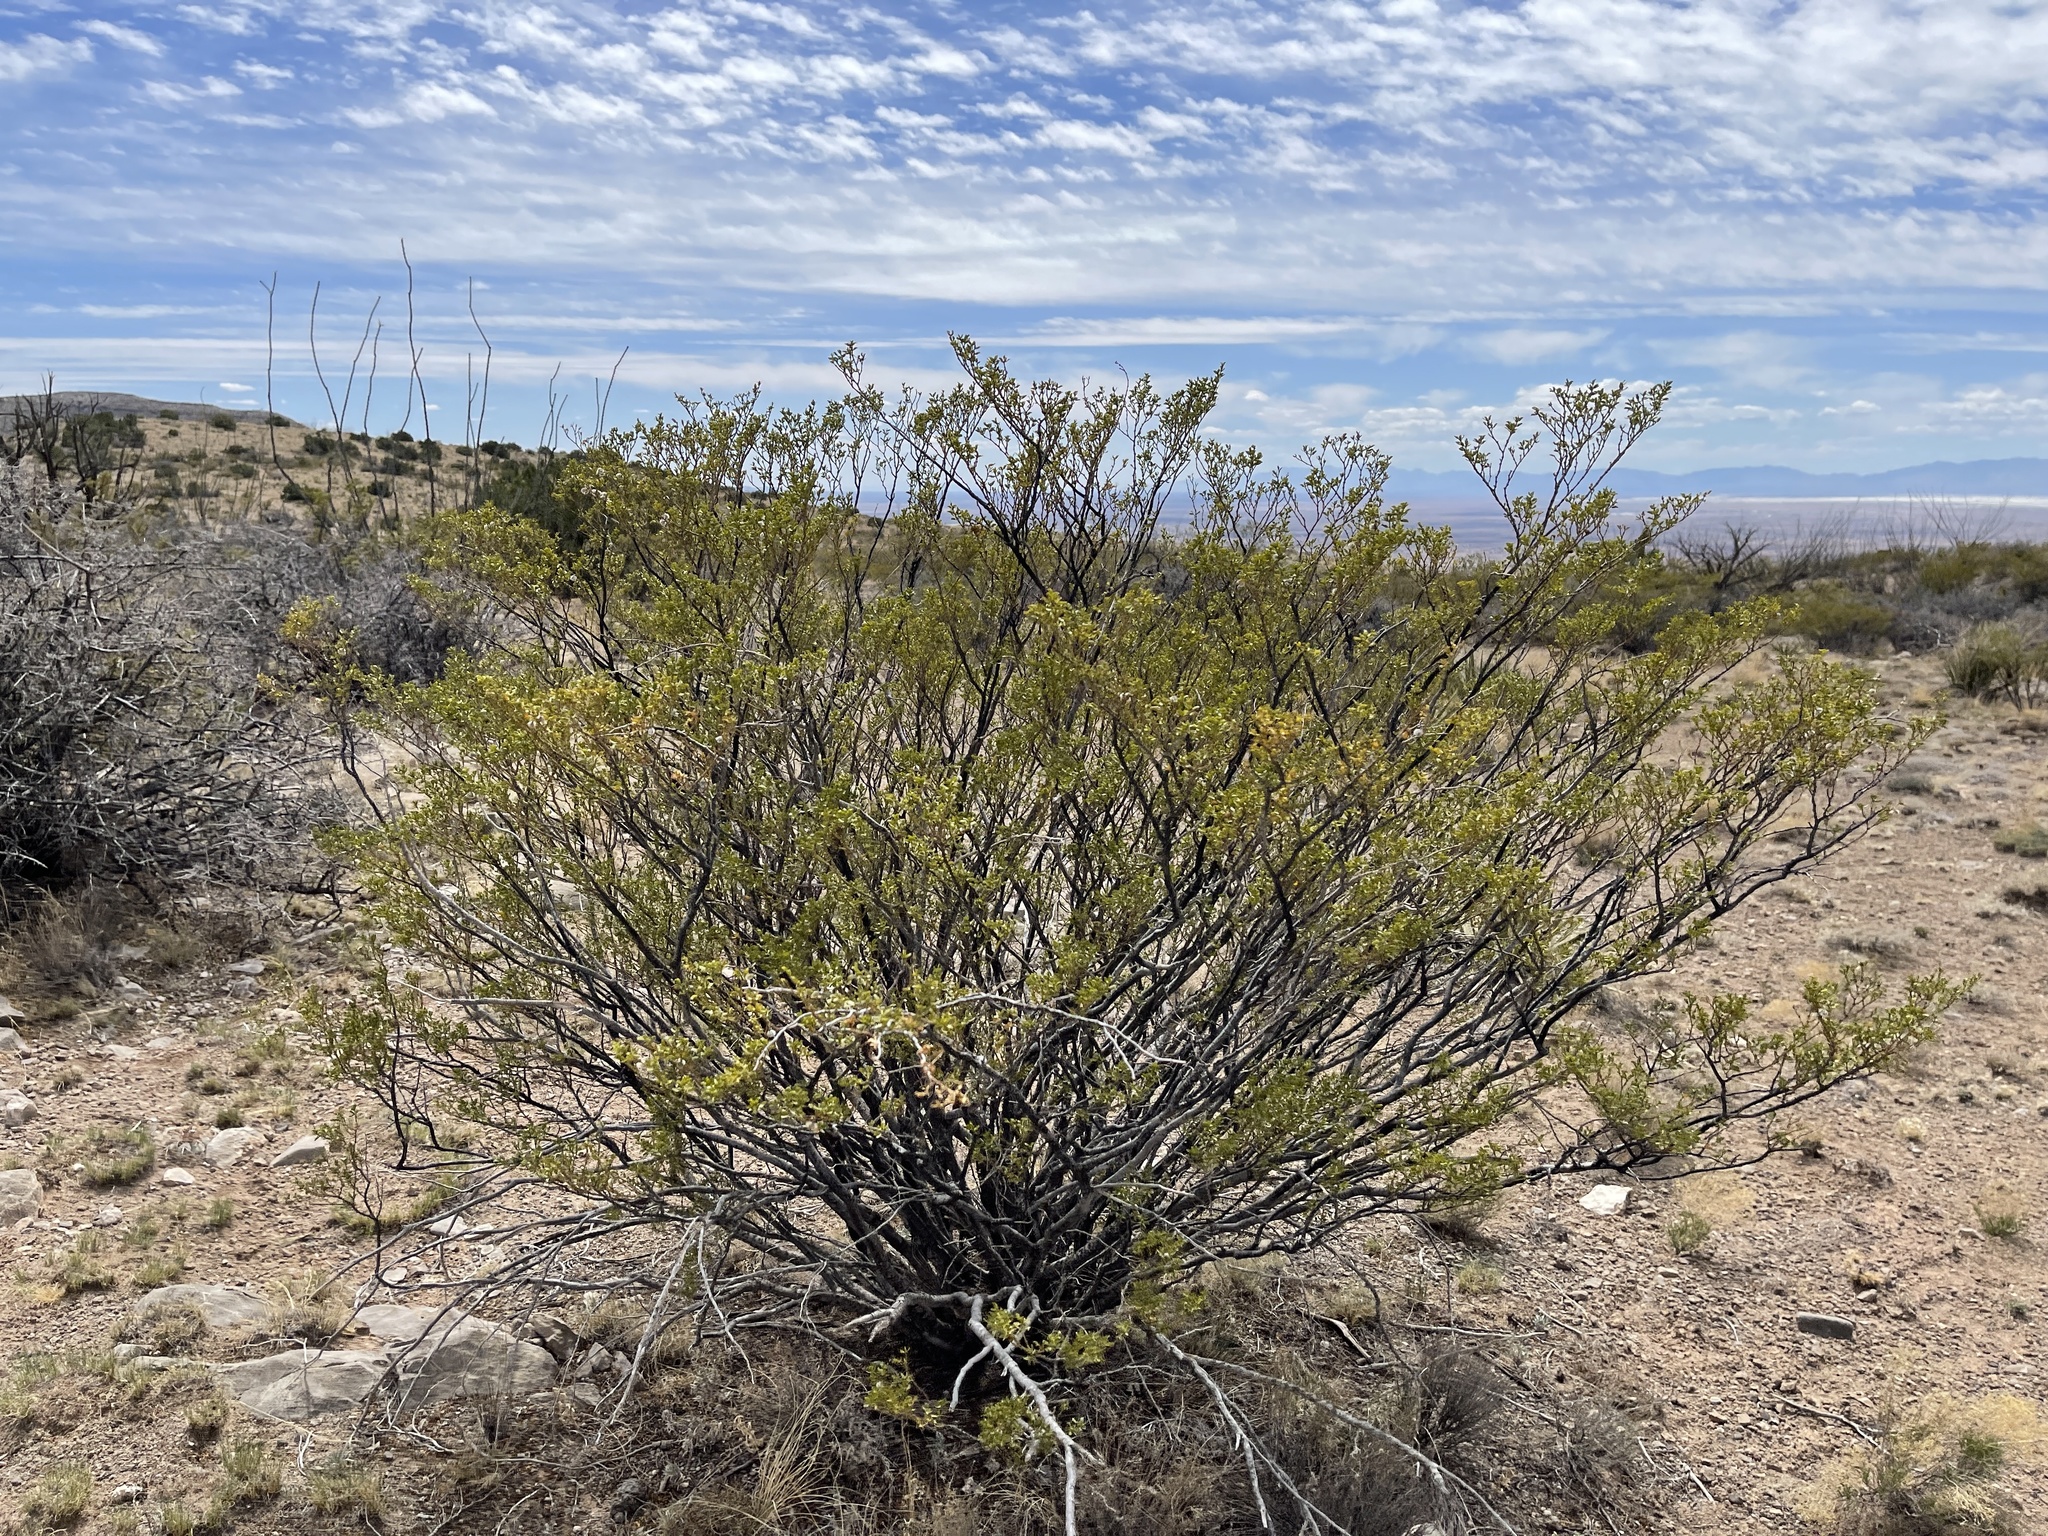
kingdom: Plantae
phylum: Tracheophyta
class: Magnoliopsida
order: Zygophyllales
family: Zygophyllaceae
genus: Larrea
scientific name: Larrea tridentata
